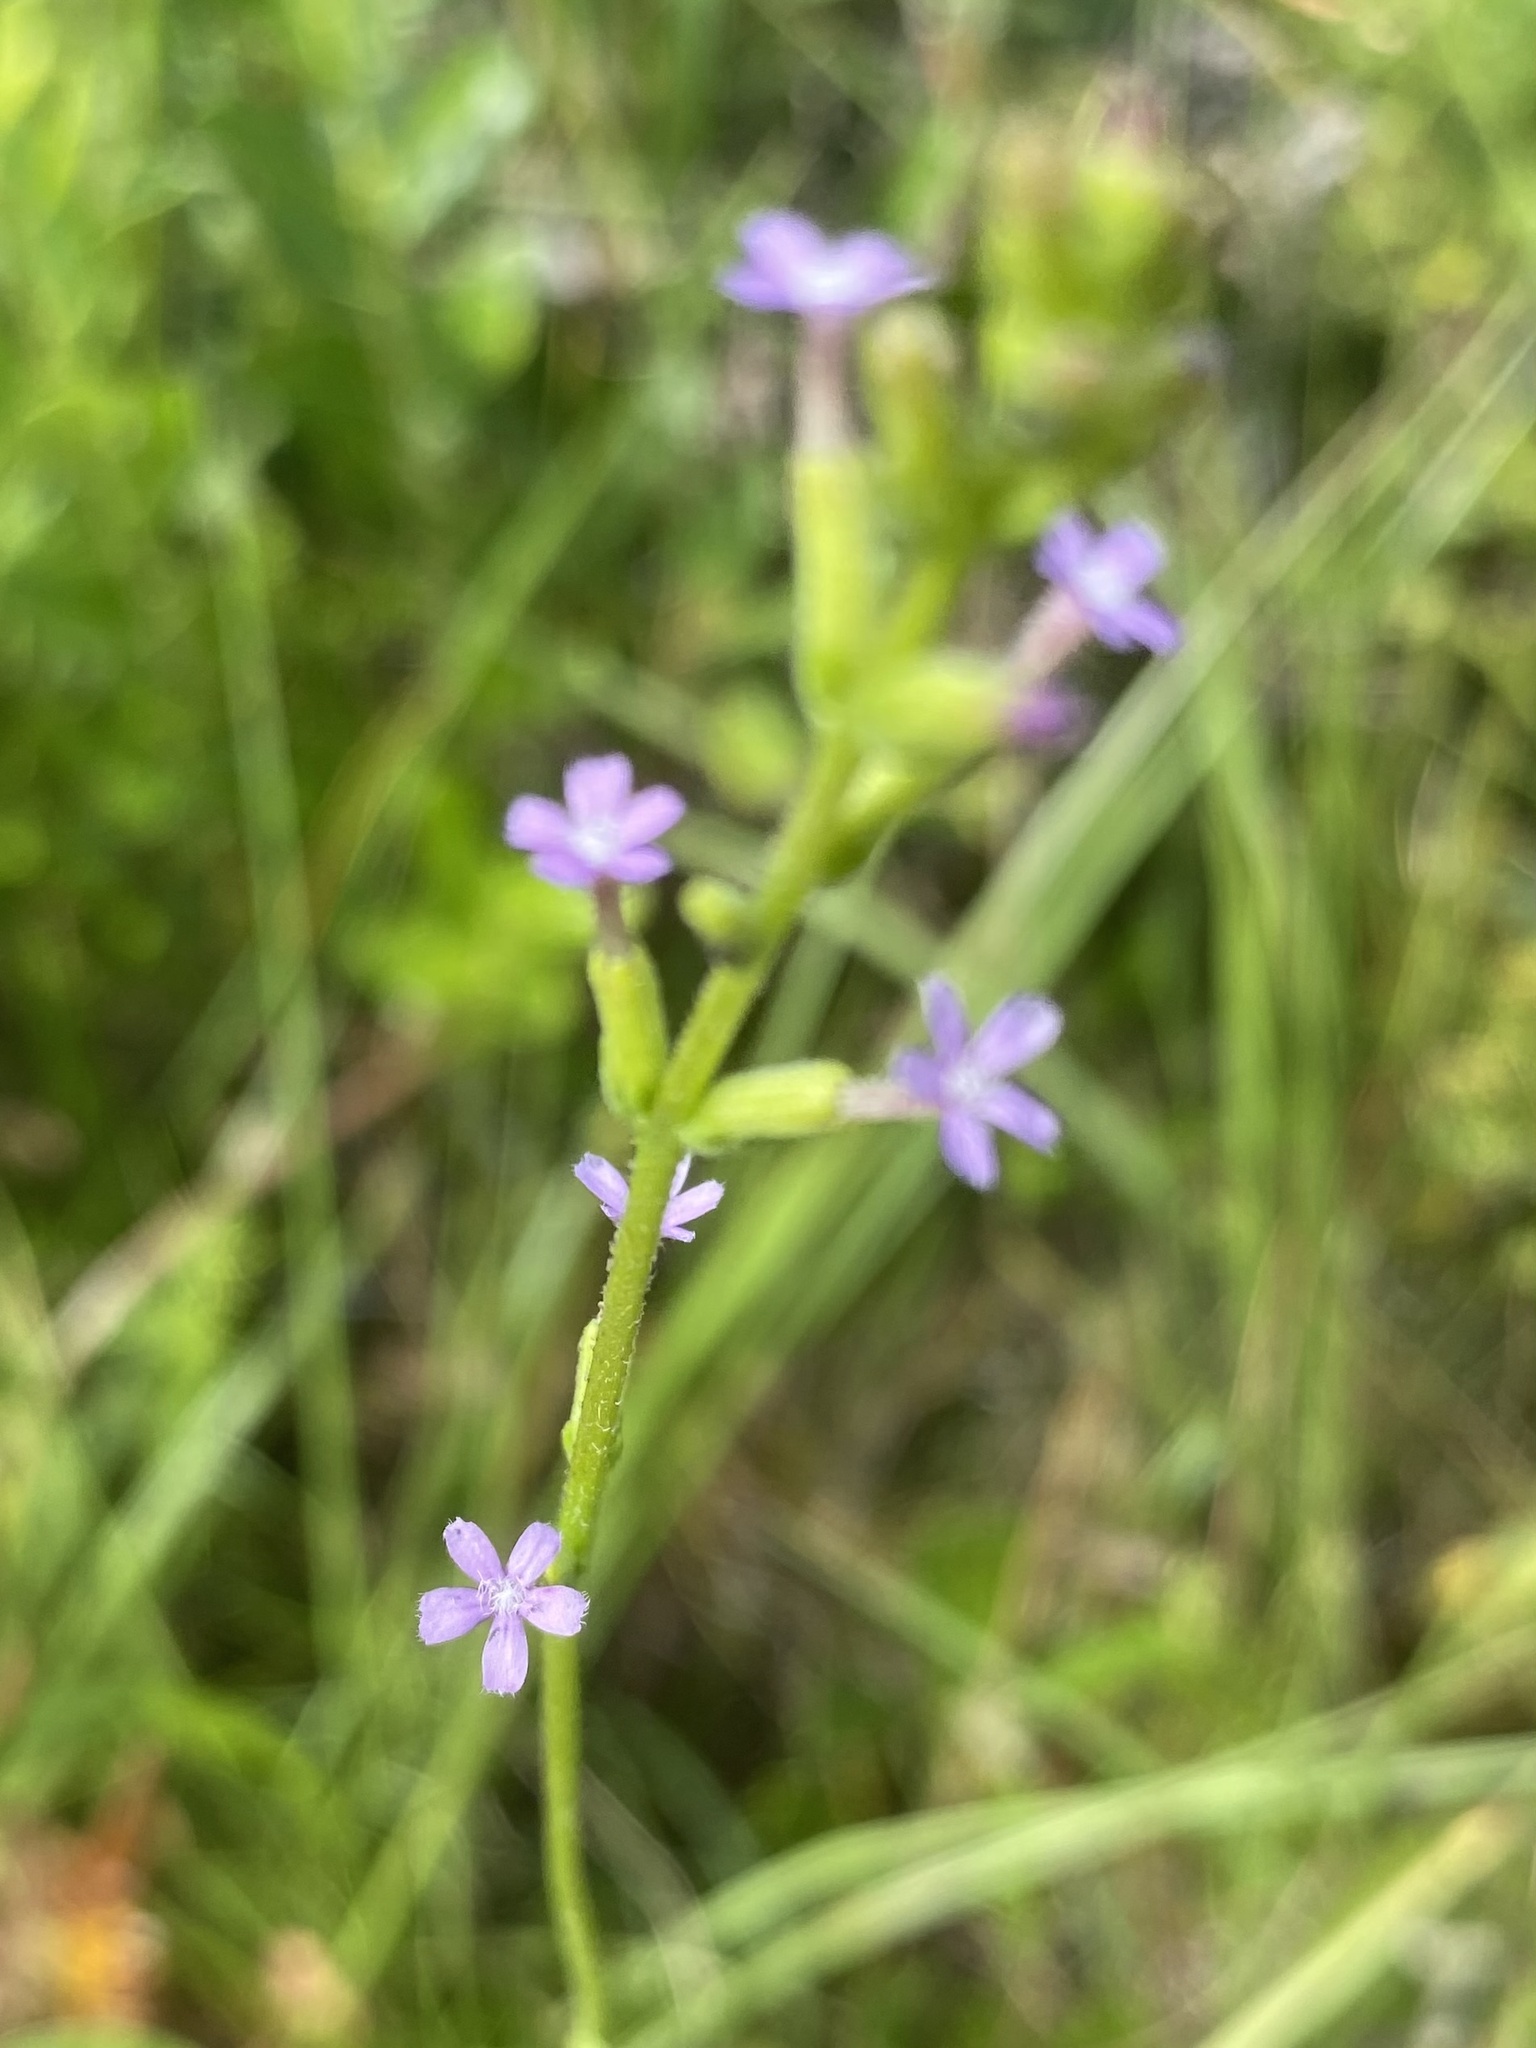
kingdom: Plantae
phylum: Tracheophyta
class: Magnoliopsida
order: Lamiales
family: Orobanchaceae
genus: Buchnera
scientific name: Buchnera floridana
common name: Florida bluehearts
